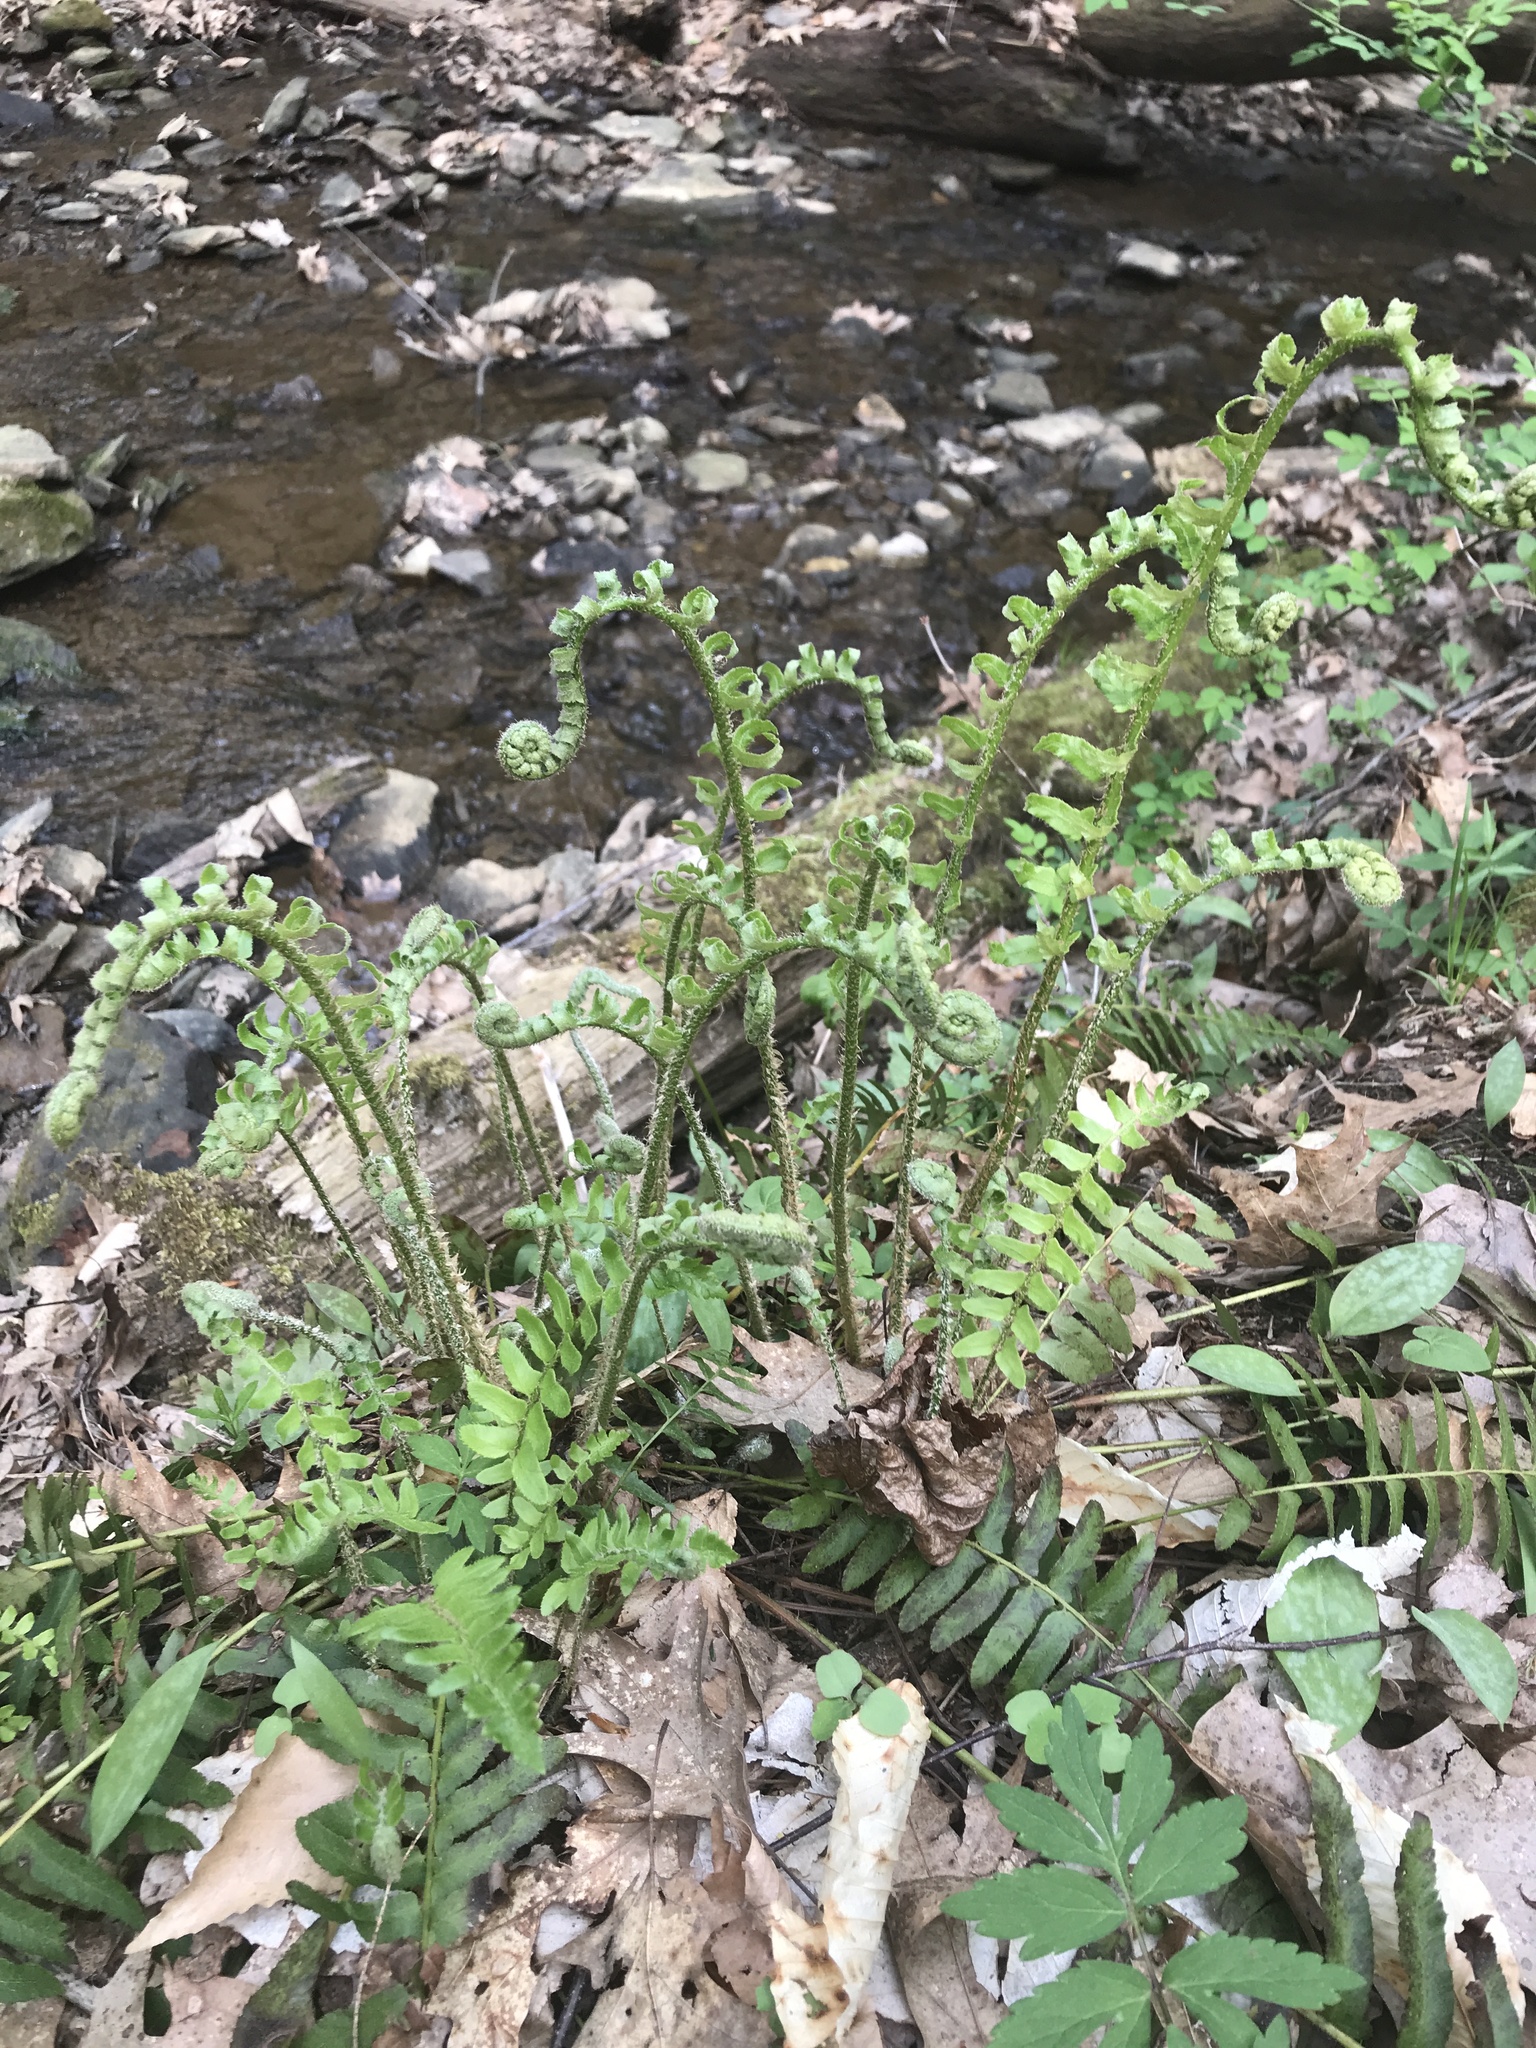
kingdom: Plantae
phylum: Tracheophyta
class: Polypodiopsida
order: Polypodiales
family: Dryopteridaceae
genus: Polystichum
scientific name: Polystichum acrostichoides
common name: Christmas fern
